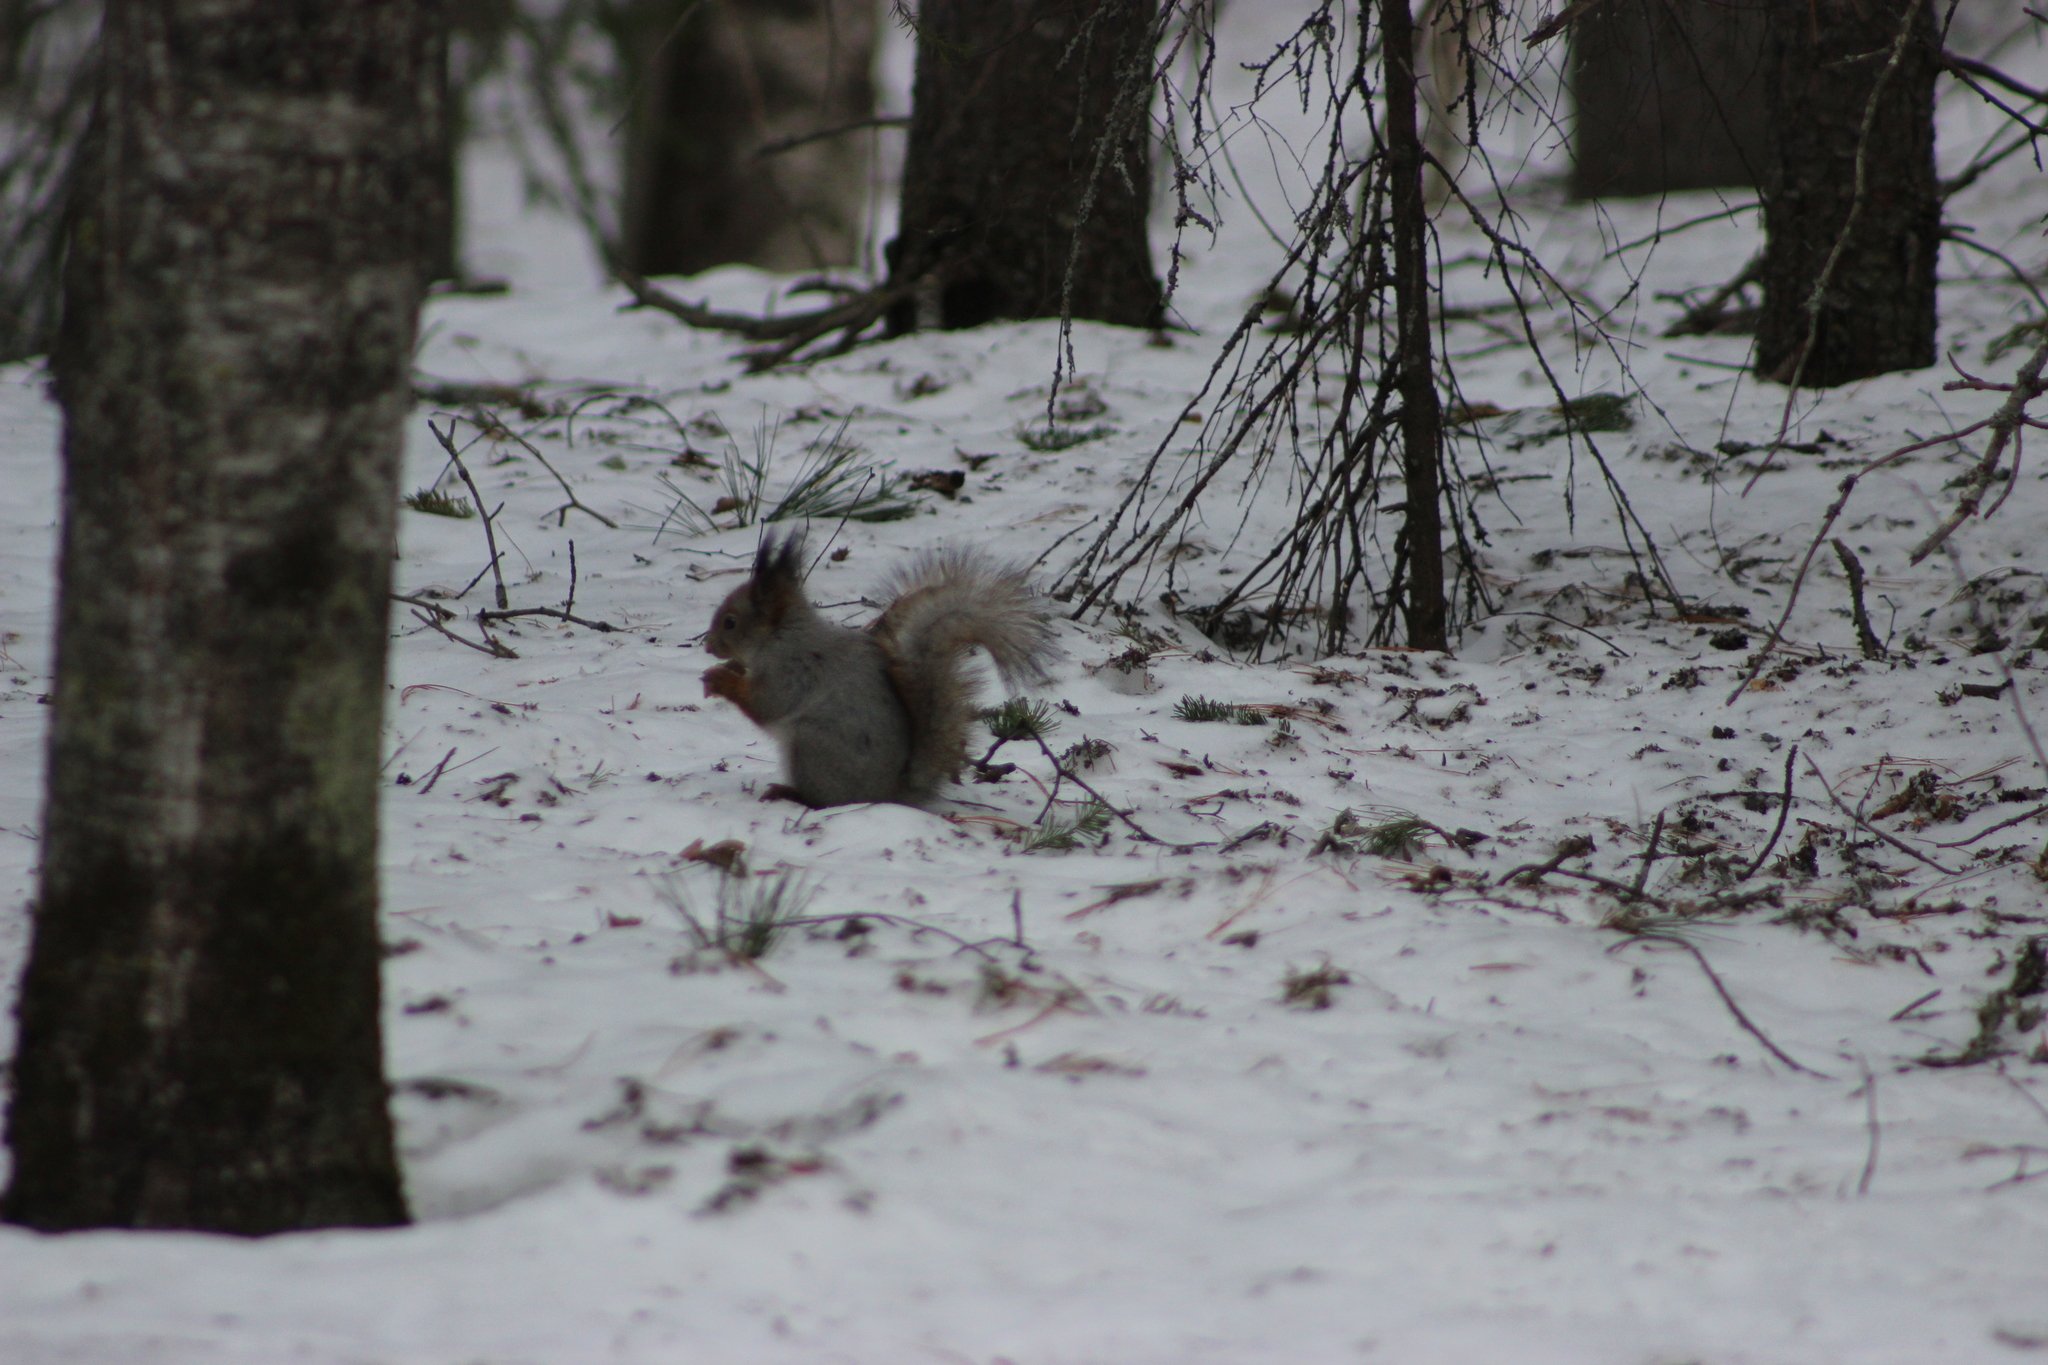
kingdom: Animalia
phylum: Chordata
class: Mammalia
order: Rodentia
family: Sciuridae
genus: Sciurus
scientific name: Sciurus vulgaris
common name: Eurasian red squirrel
